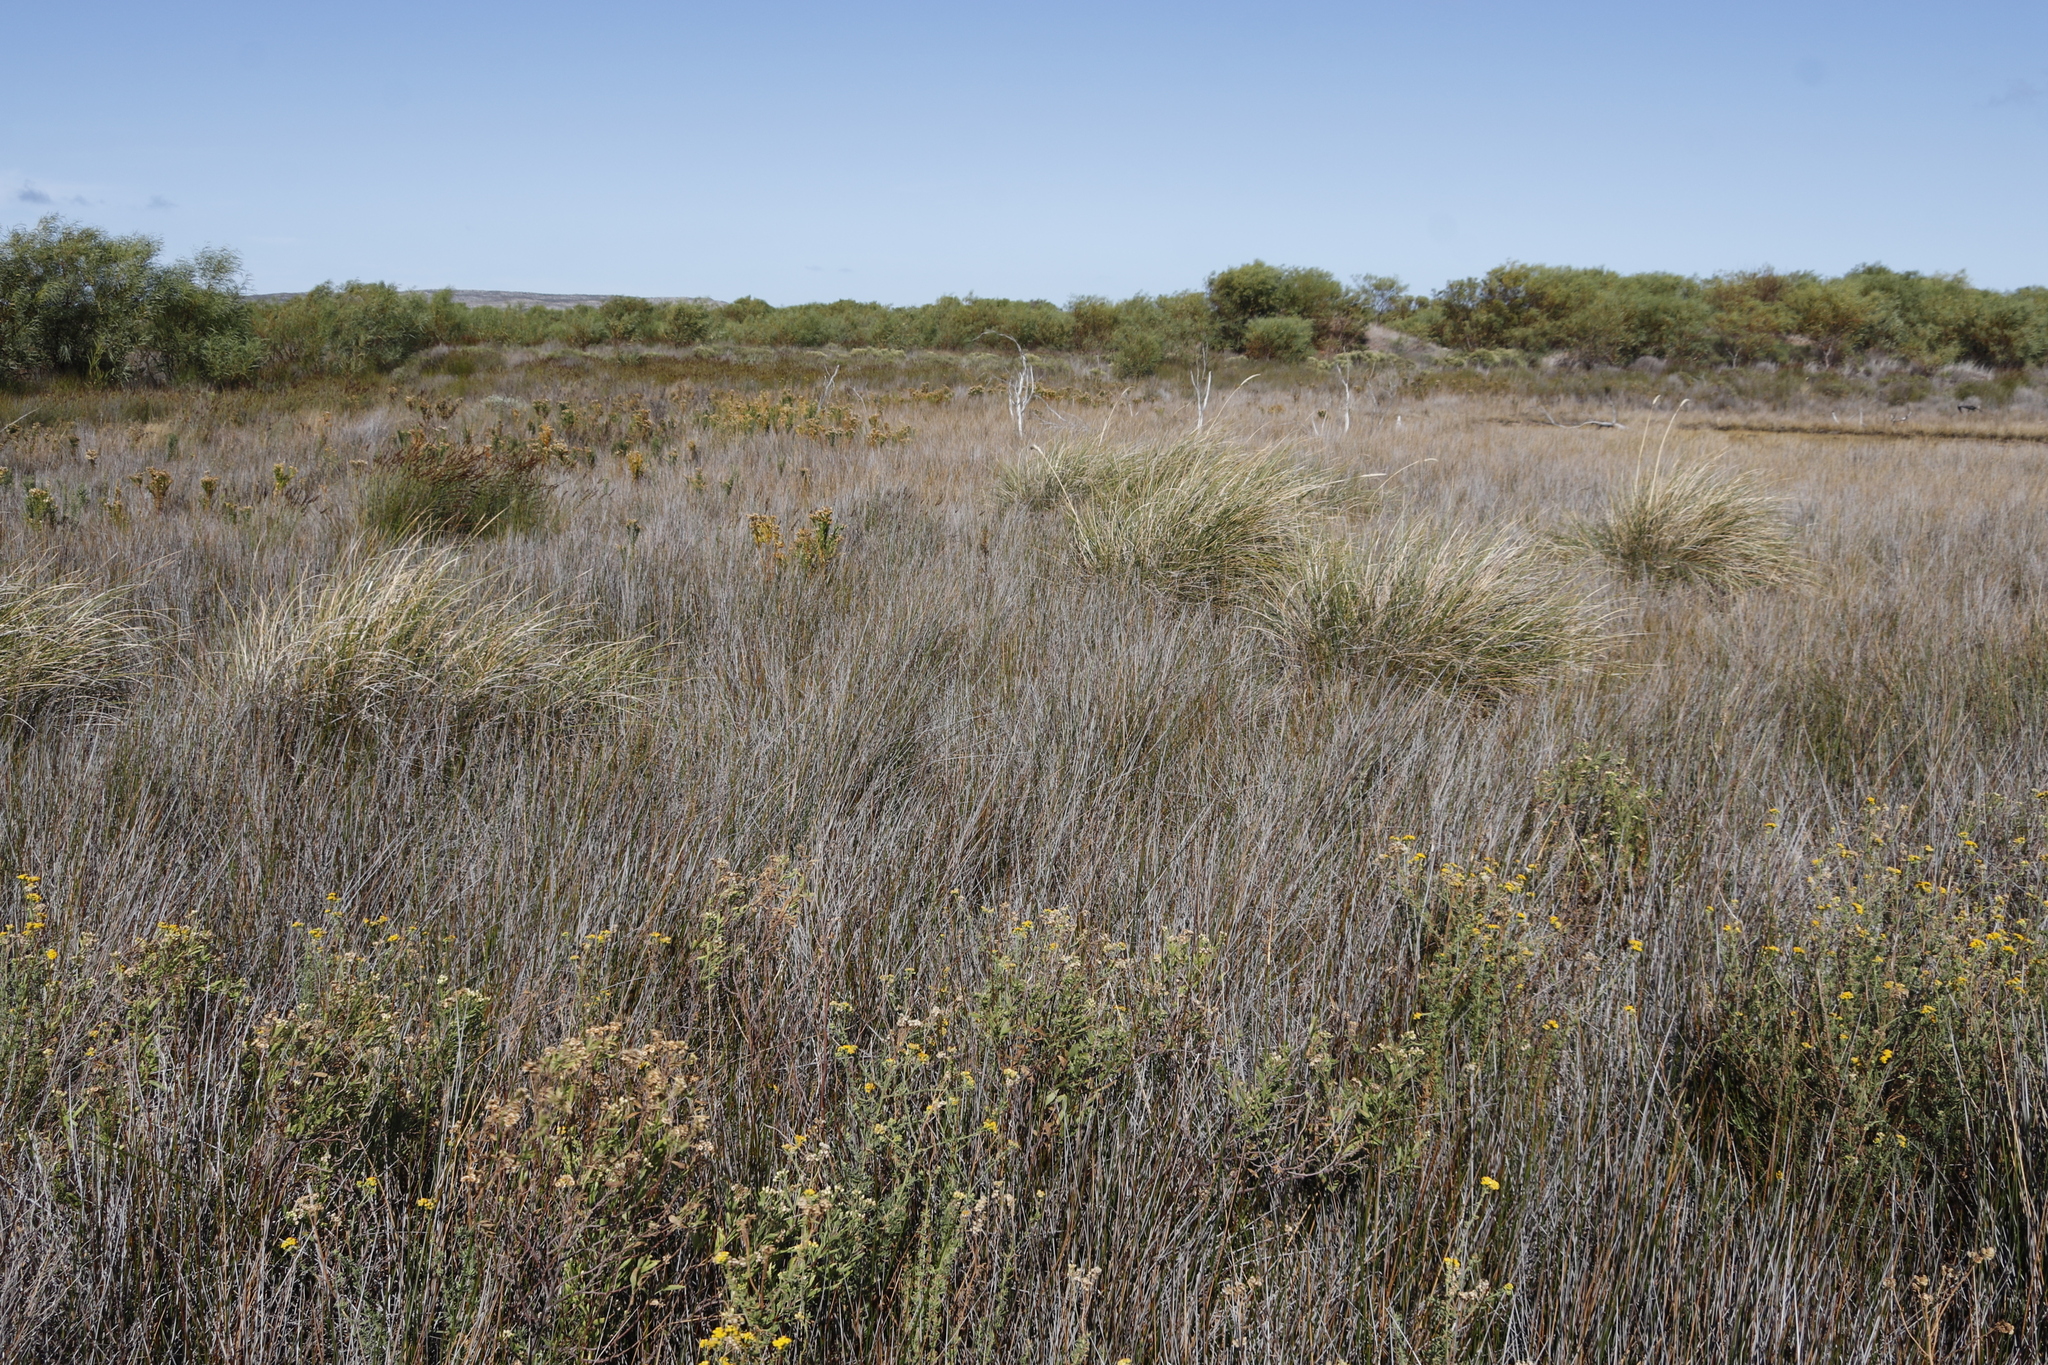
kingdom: Plantae
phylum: Tracheophyta
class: Liliopsida
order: Poales
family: Juncaceae
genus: Juncus
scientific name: Juncus kraussii
